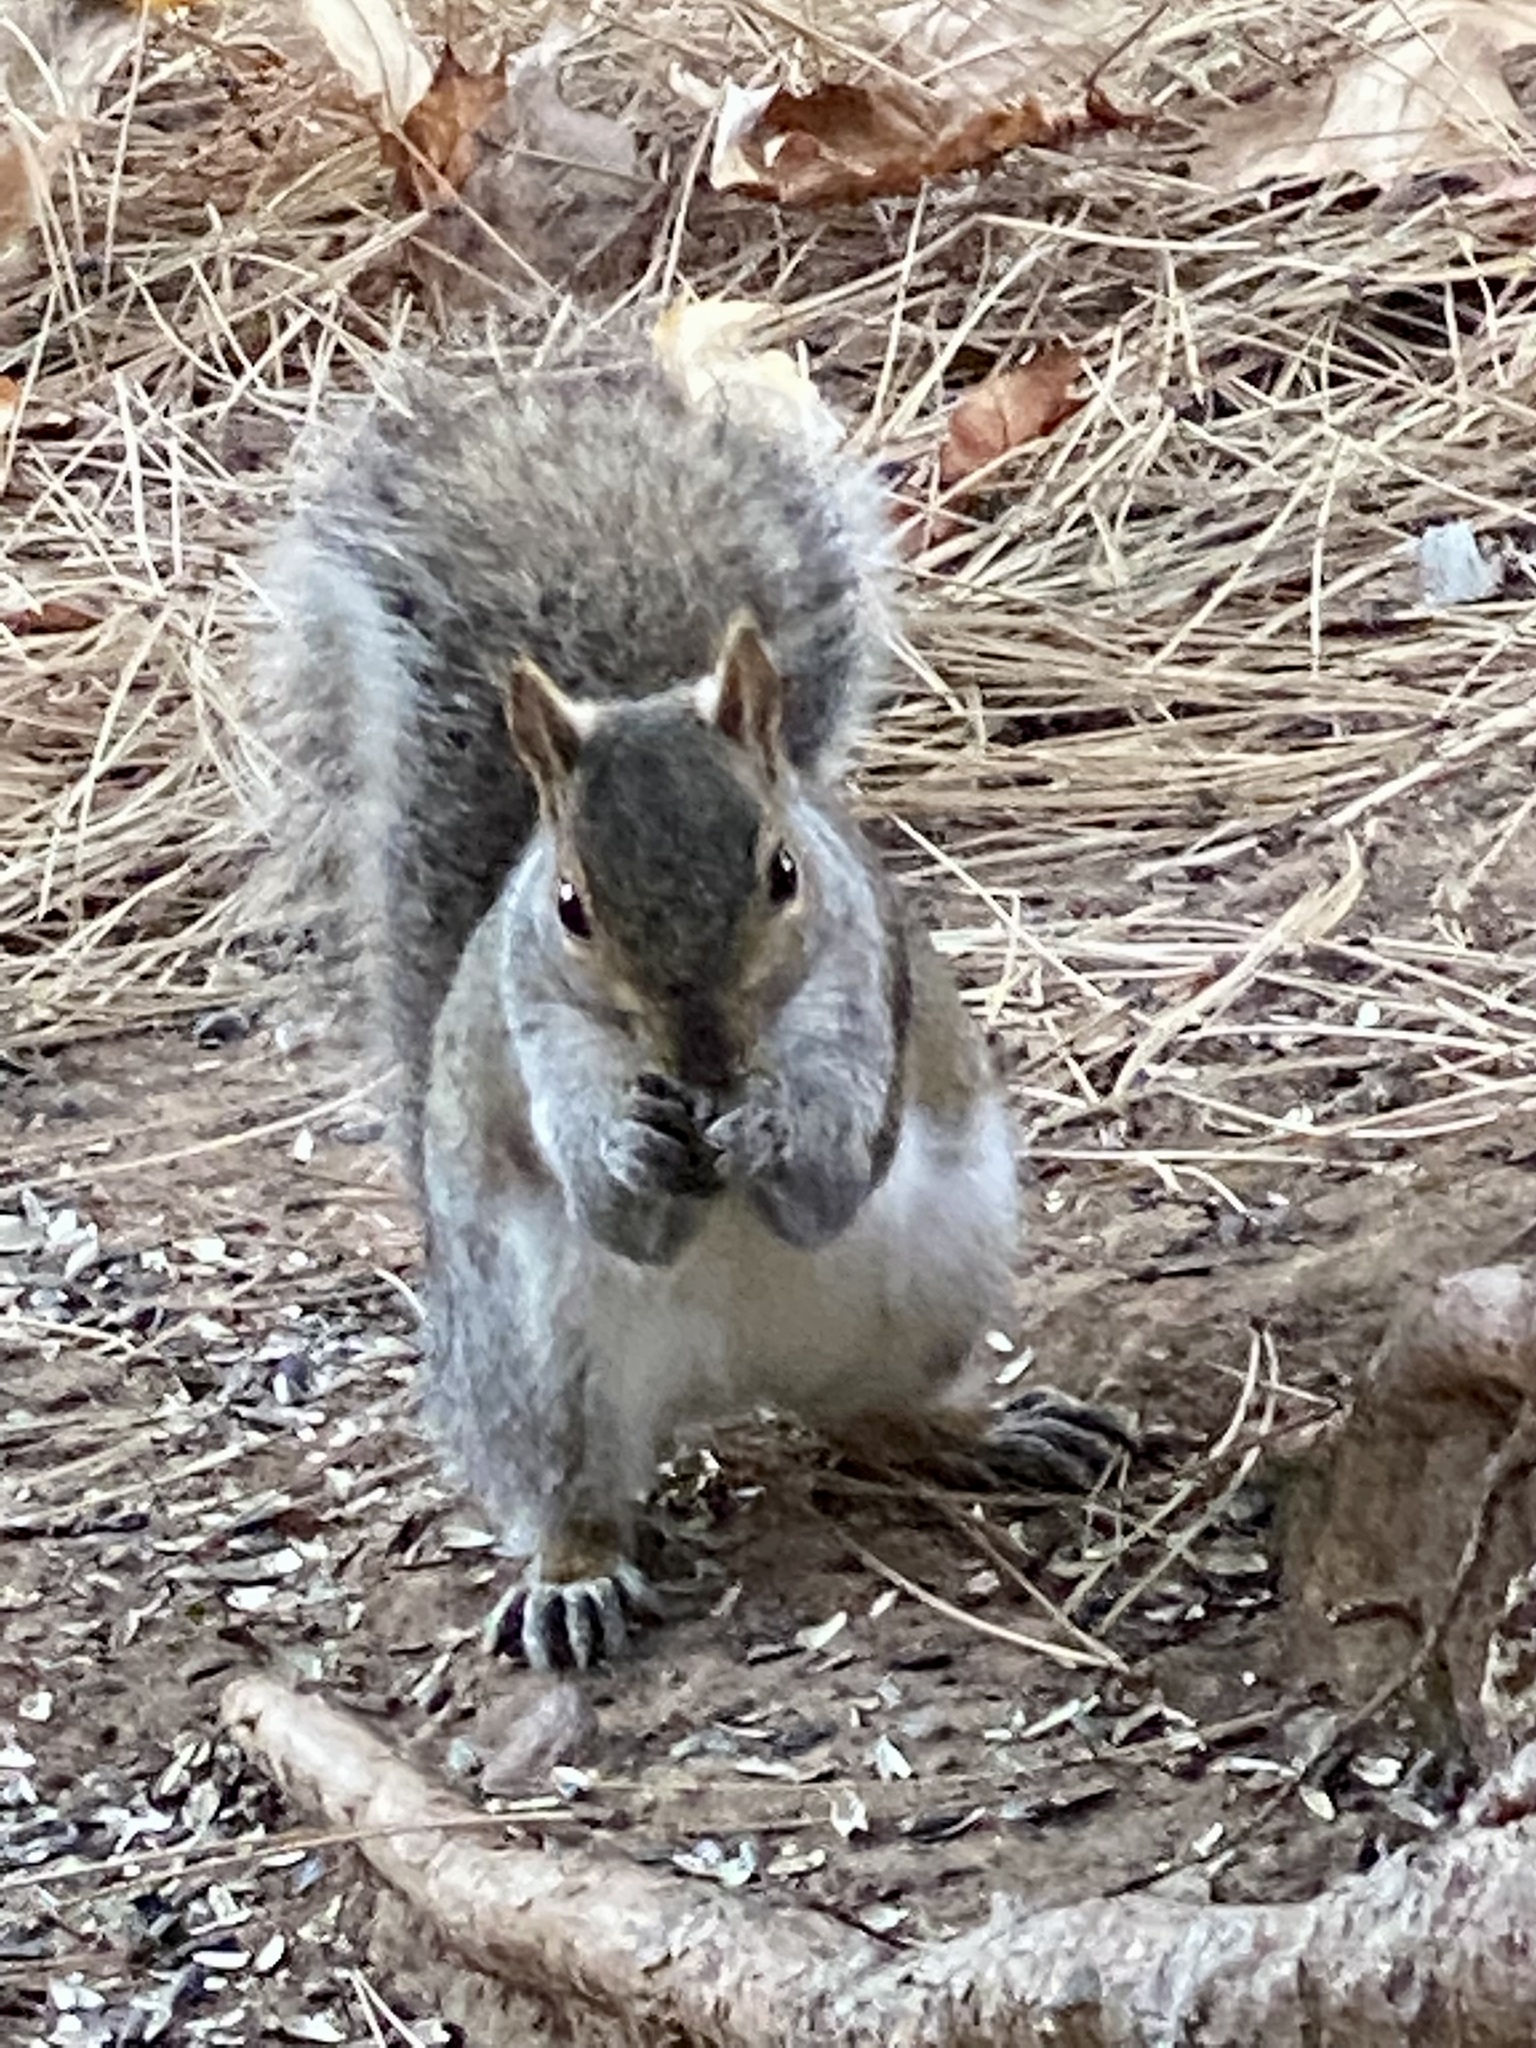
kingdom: Animalia
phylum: Chordata
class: Mammalia
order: Rodentia
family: Sciuridae
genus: Sciurus
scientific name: Sciurus carolinensis
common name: Eastern gray squirrel
